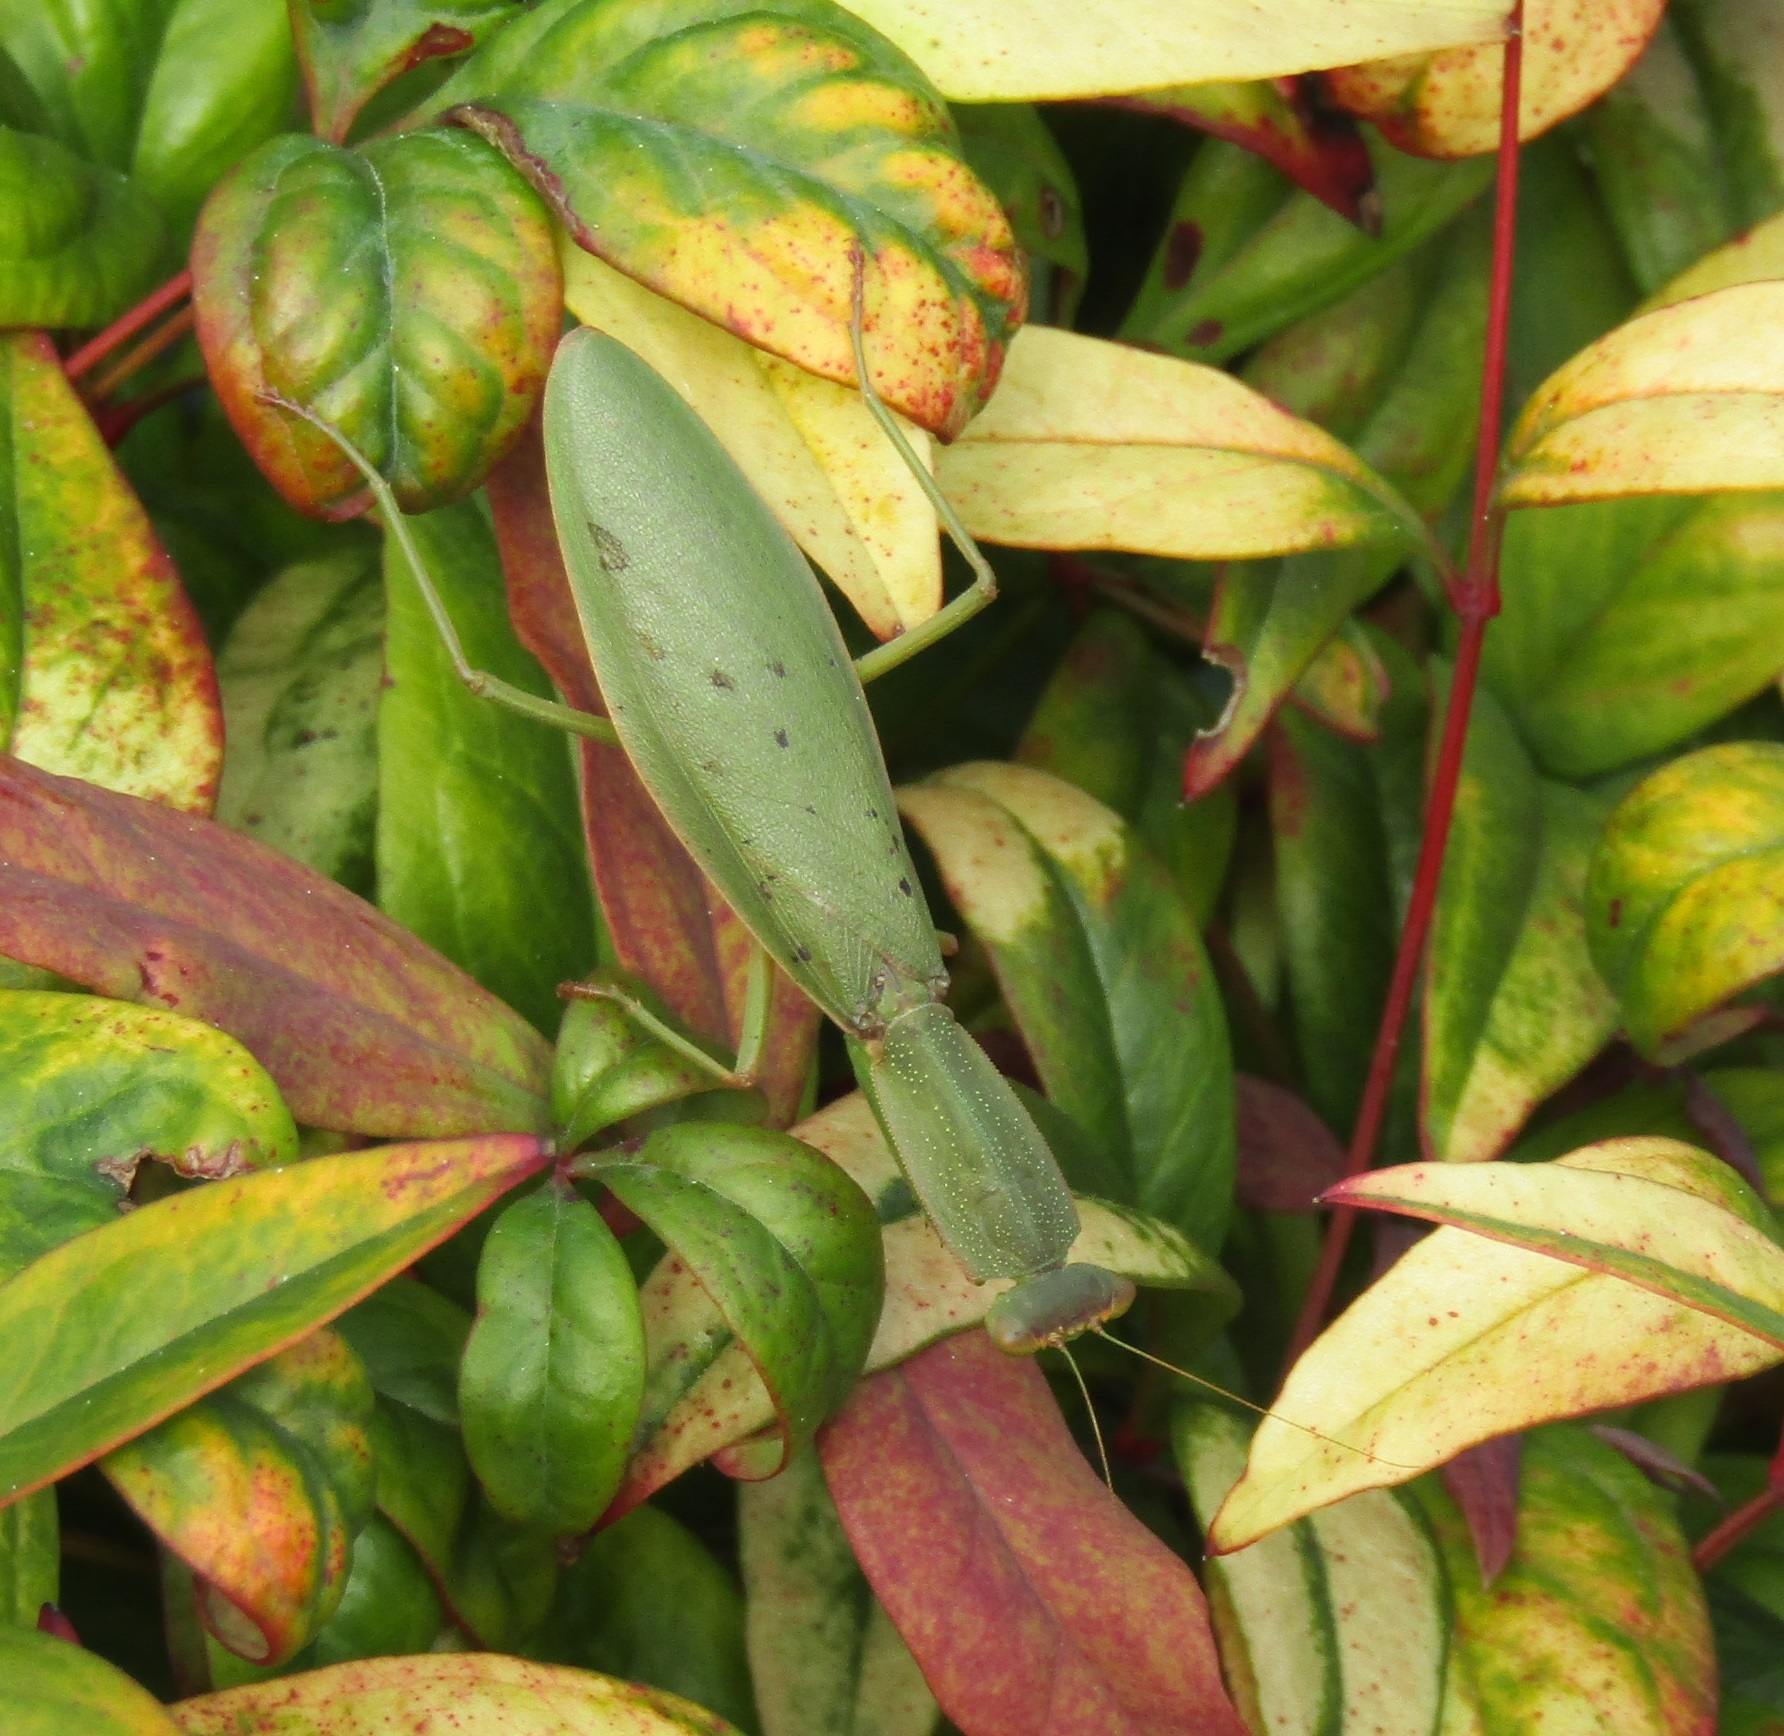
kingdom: Animalia
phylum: Arthropoda
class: Insecta
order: Mantodea
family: Mantidae
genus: Orthodera
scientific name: Orthodera novaezealandiae
